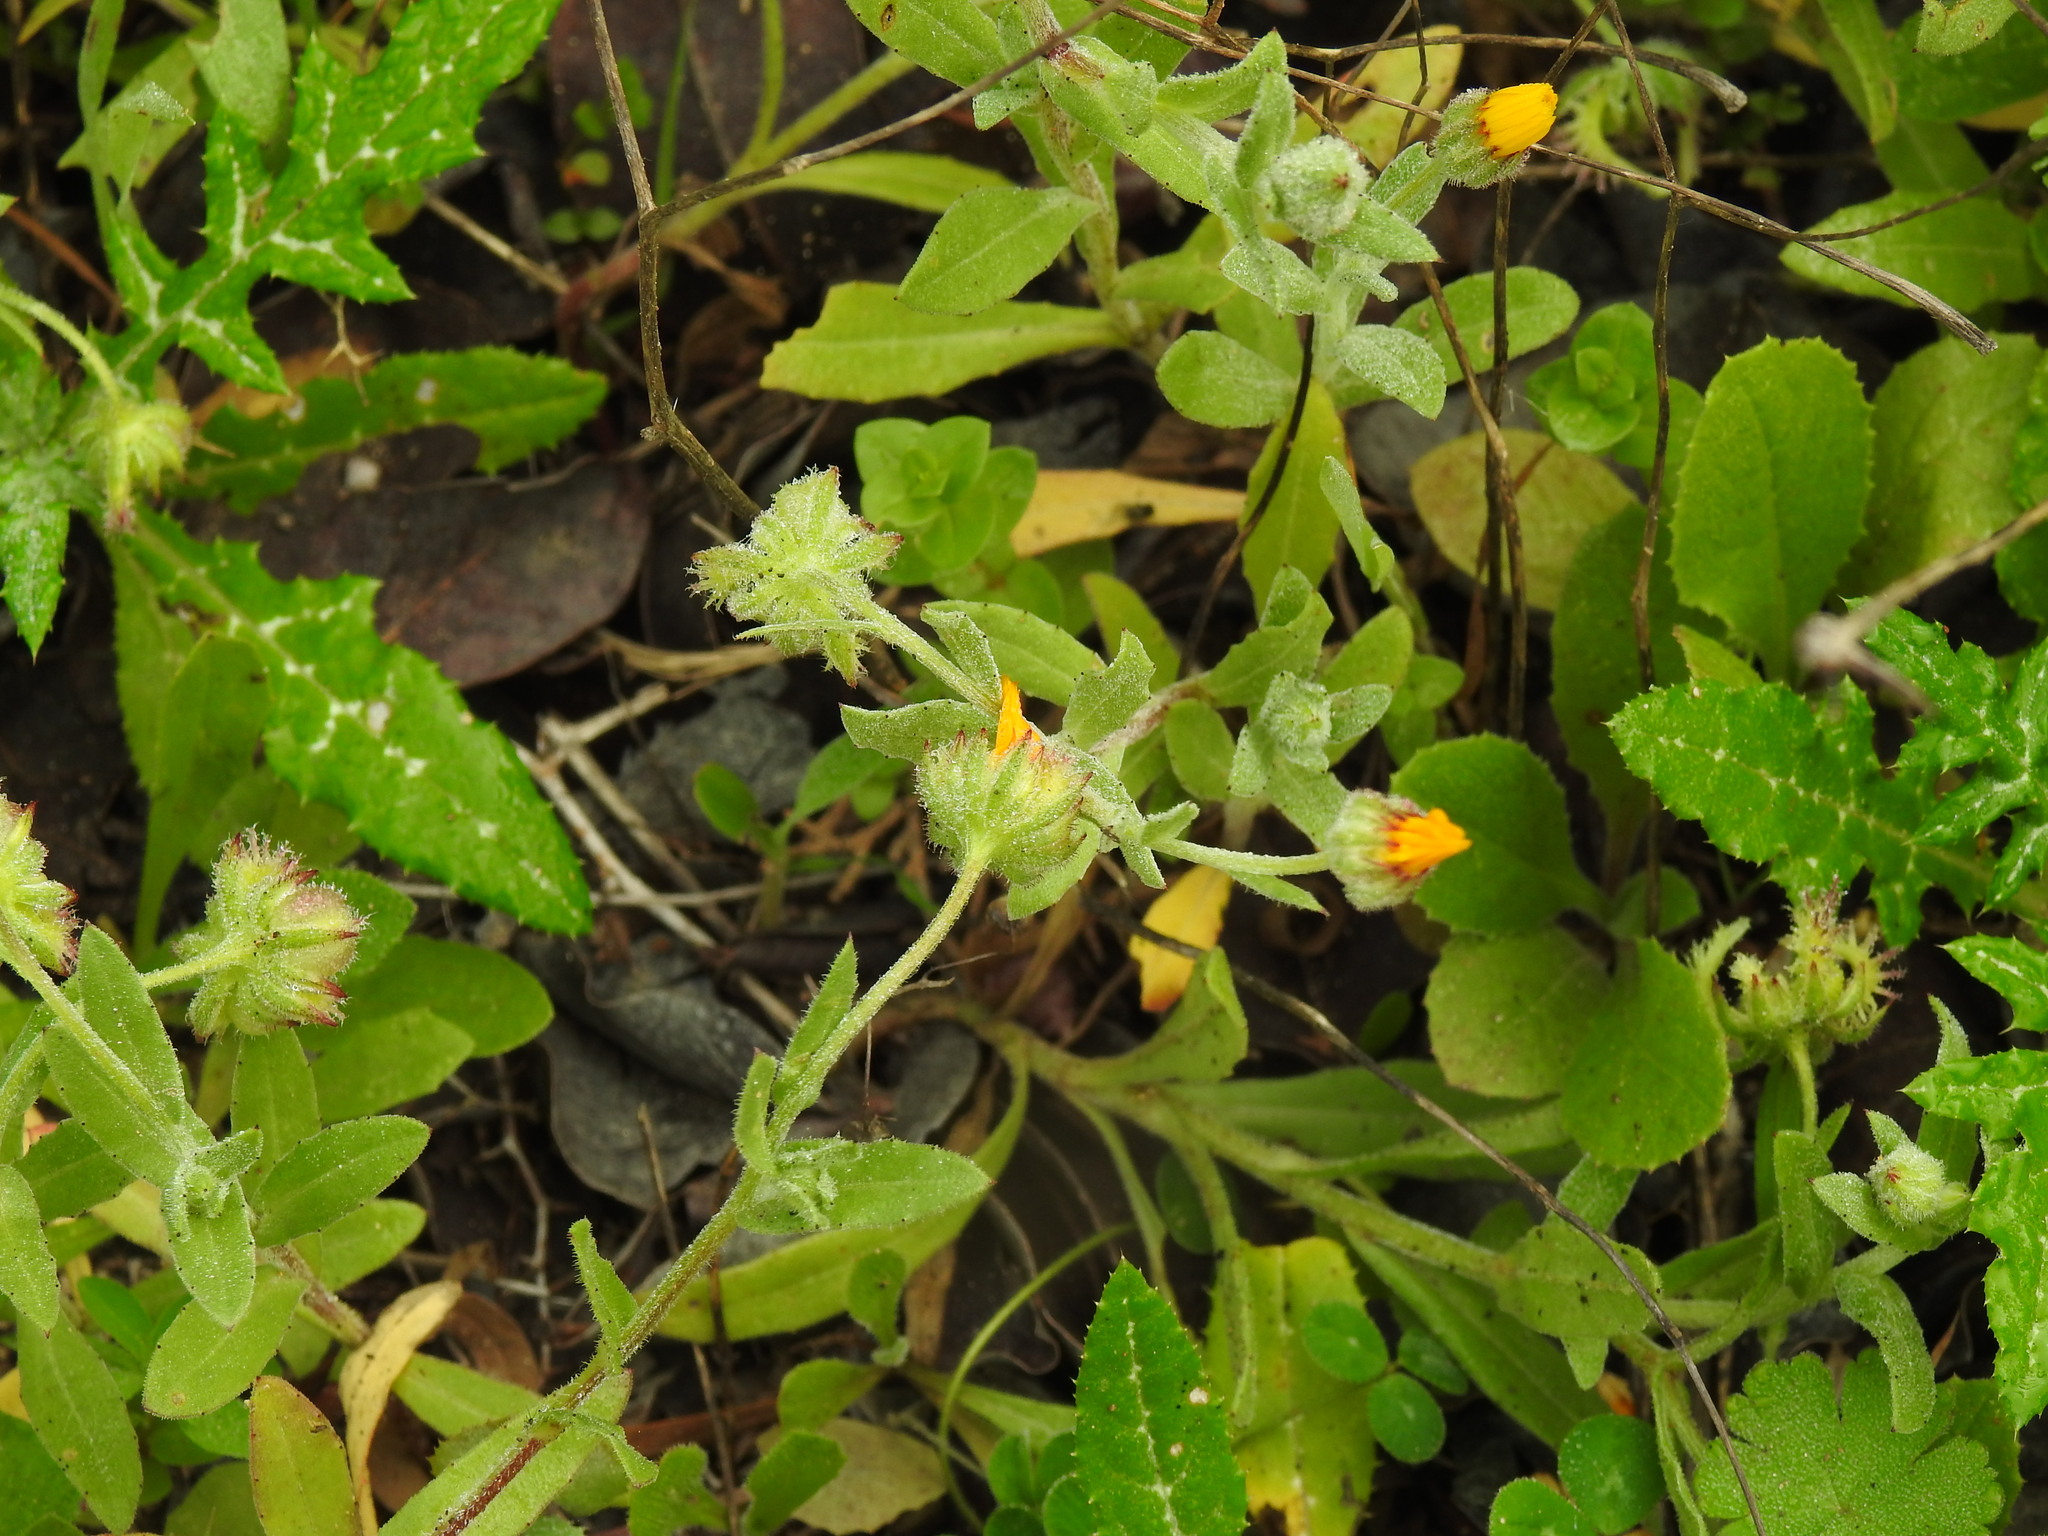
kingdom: Plantae
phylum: Tracheophyta
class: Magnoliopsida
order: Asterales
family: Asteraceae
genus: Calendula
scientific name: Calendula arvensis
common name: Field marigold
